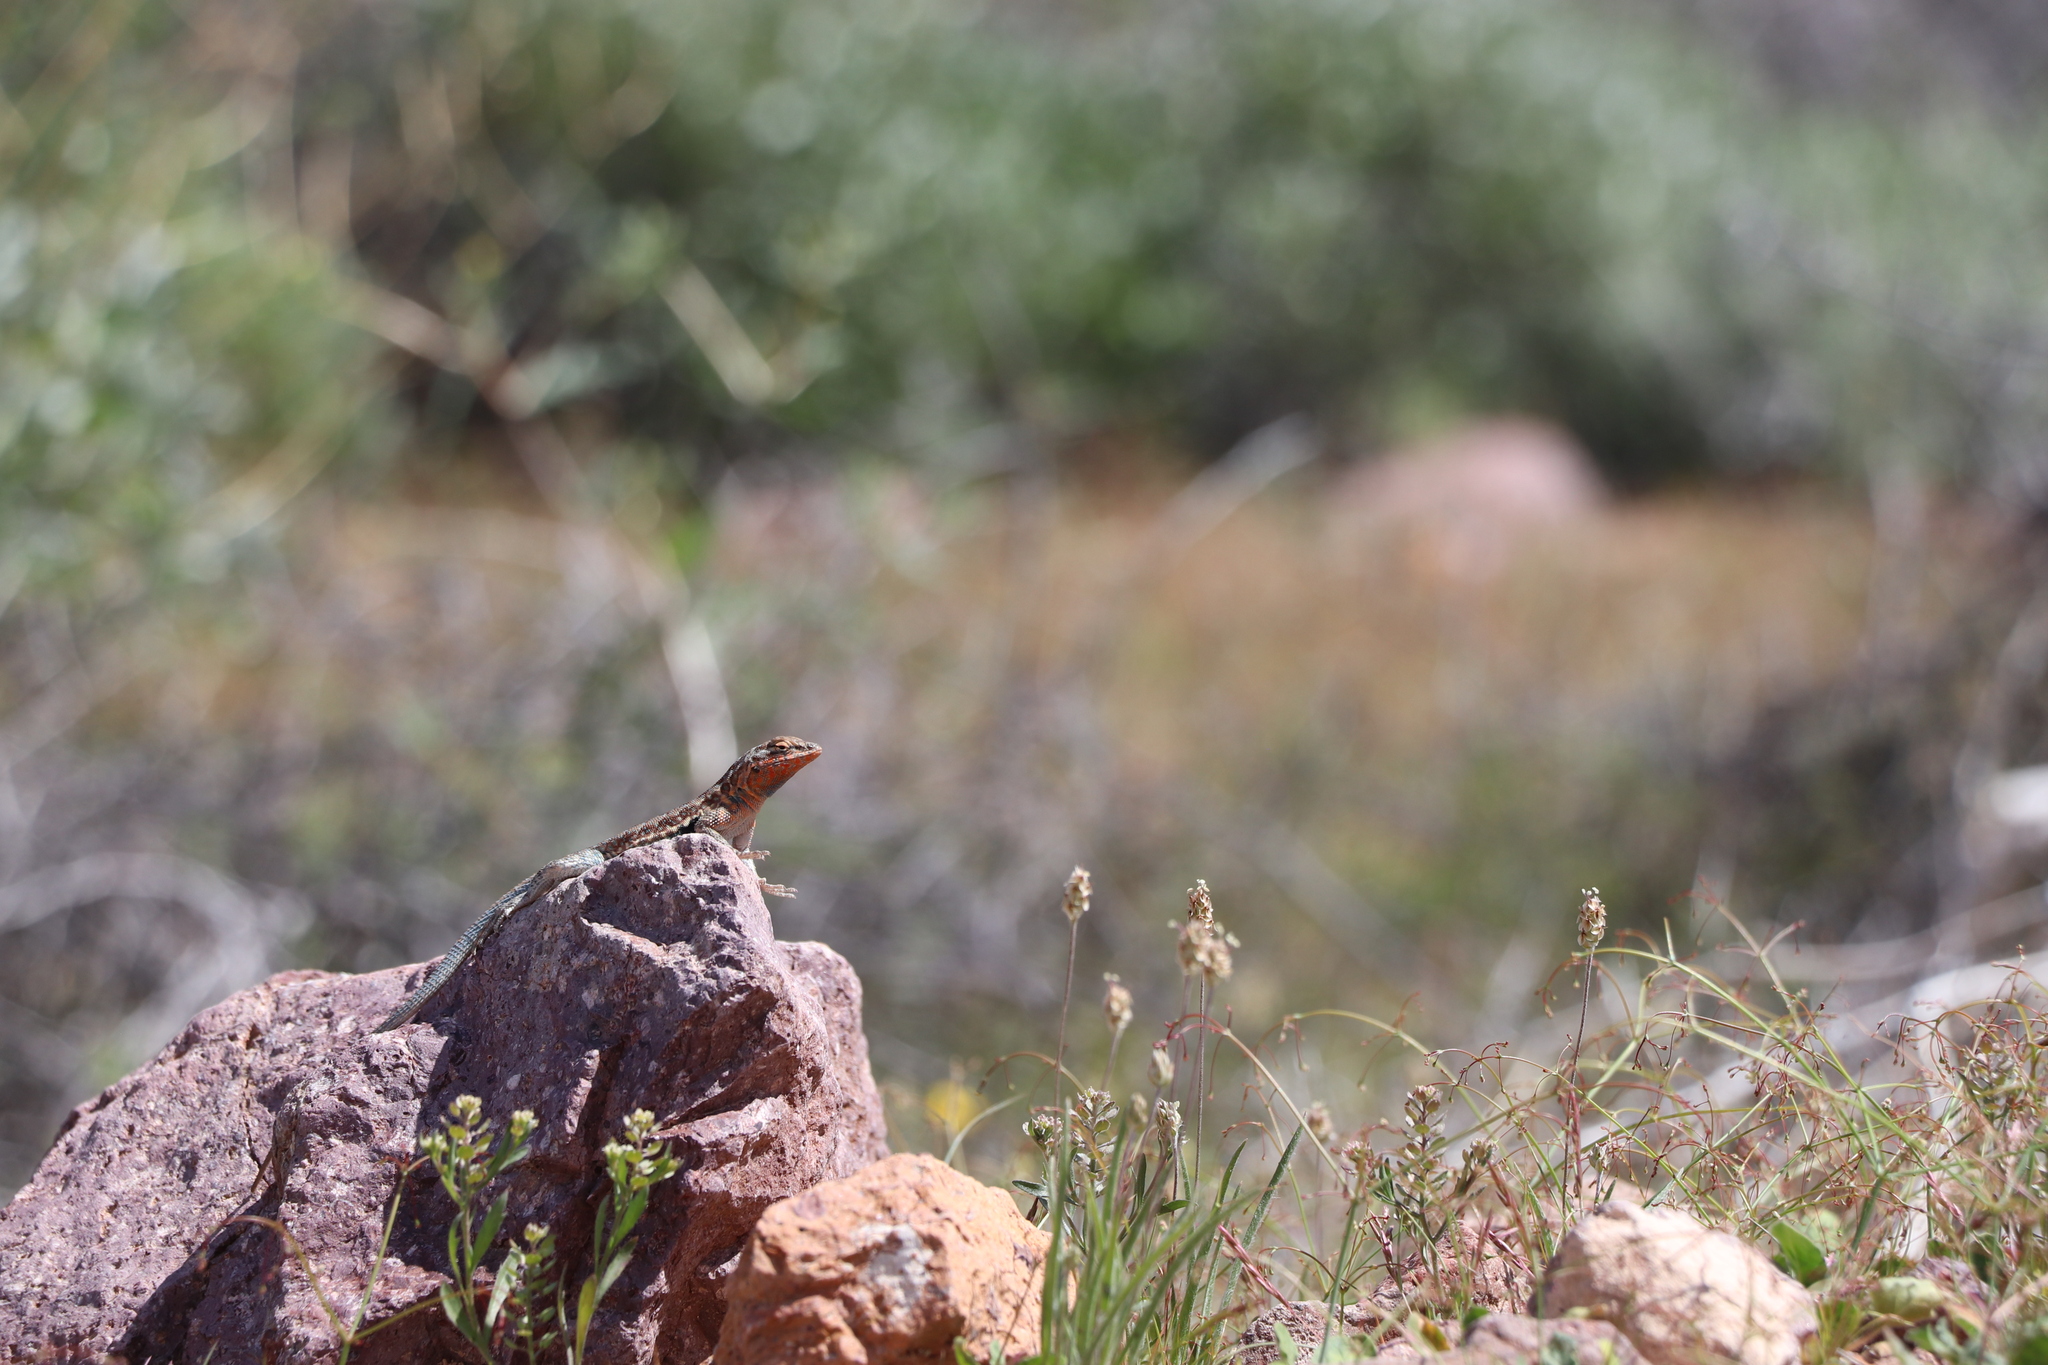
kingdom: Animalia
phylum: Chordata
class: Squamata
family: Phrynosomatidae
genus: Uta
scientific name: Uta stansburiana
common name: Side-blotched lizard
